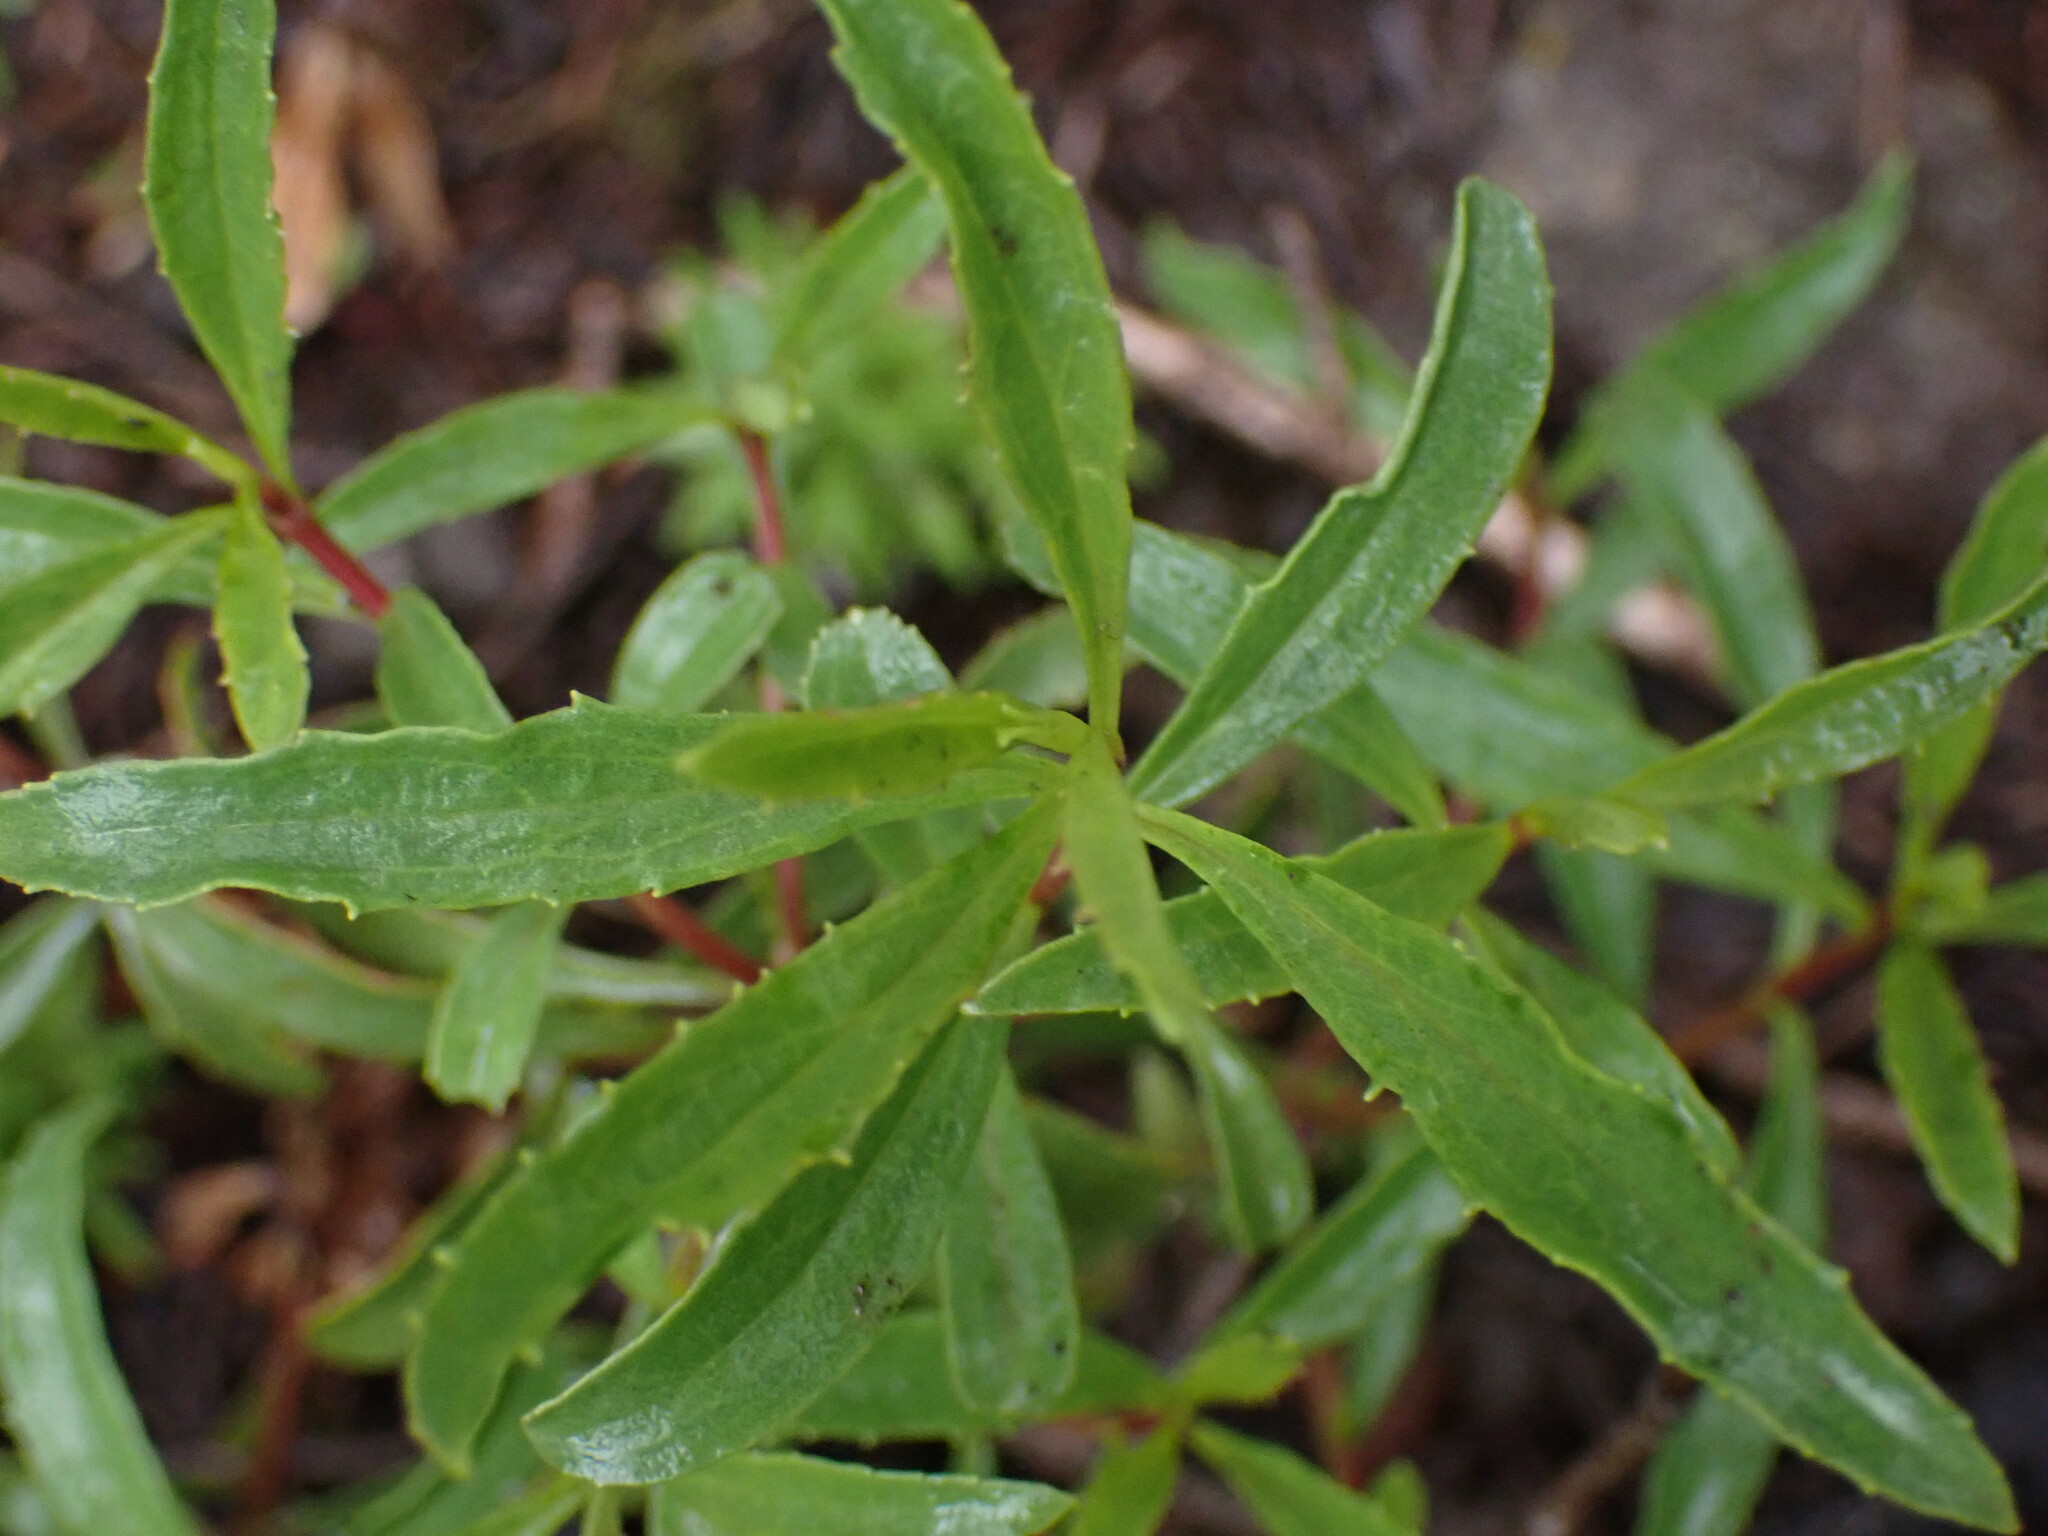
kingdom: Plantae
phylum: Tracheophyta
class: Magnoliopsida
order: Lamiales
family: Plantaginaceae
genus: Penstemon
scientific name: Penstemon fruticosus
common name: Bush penstemon
